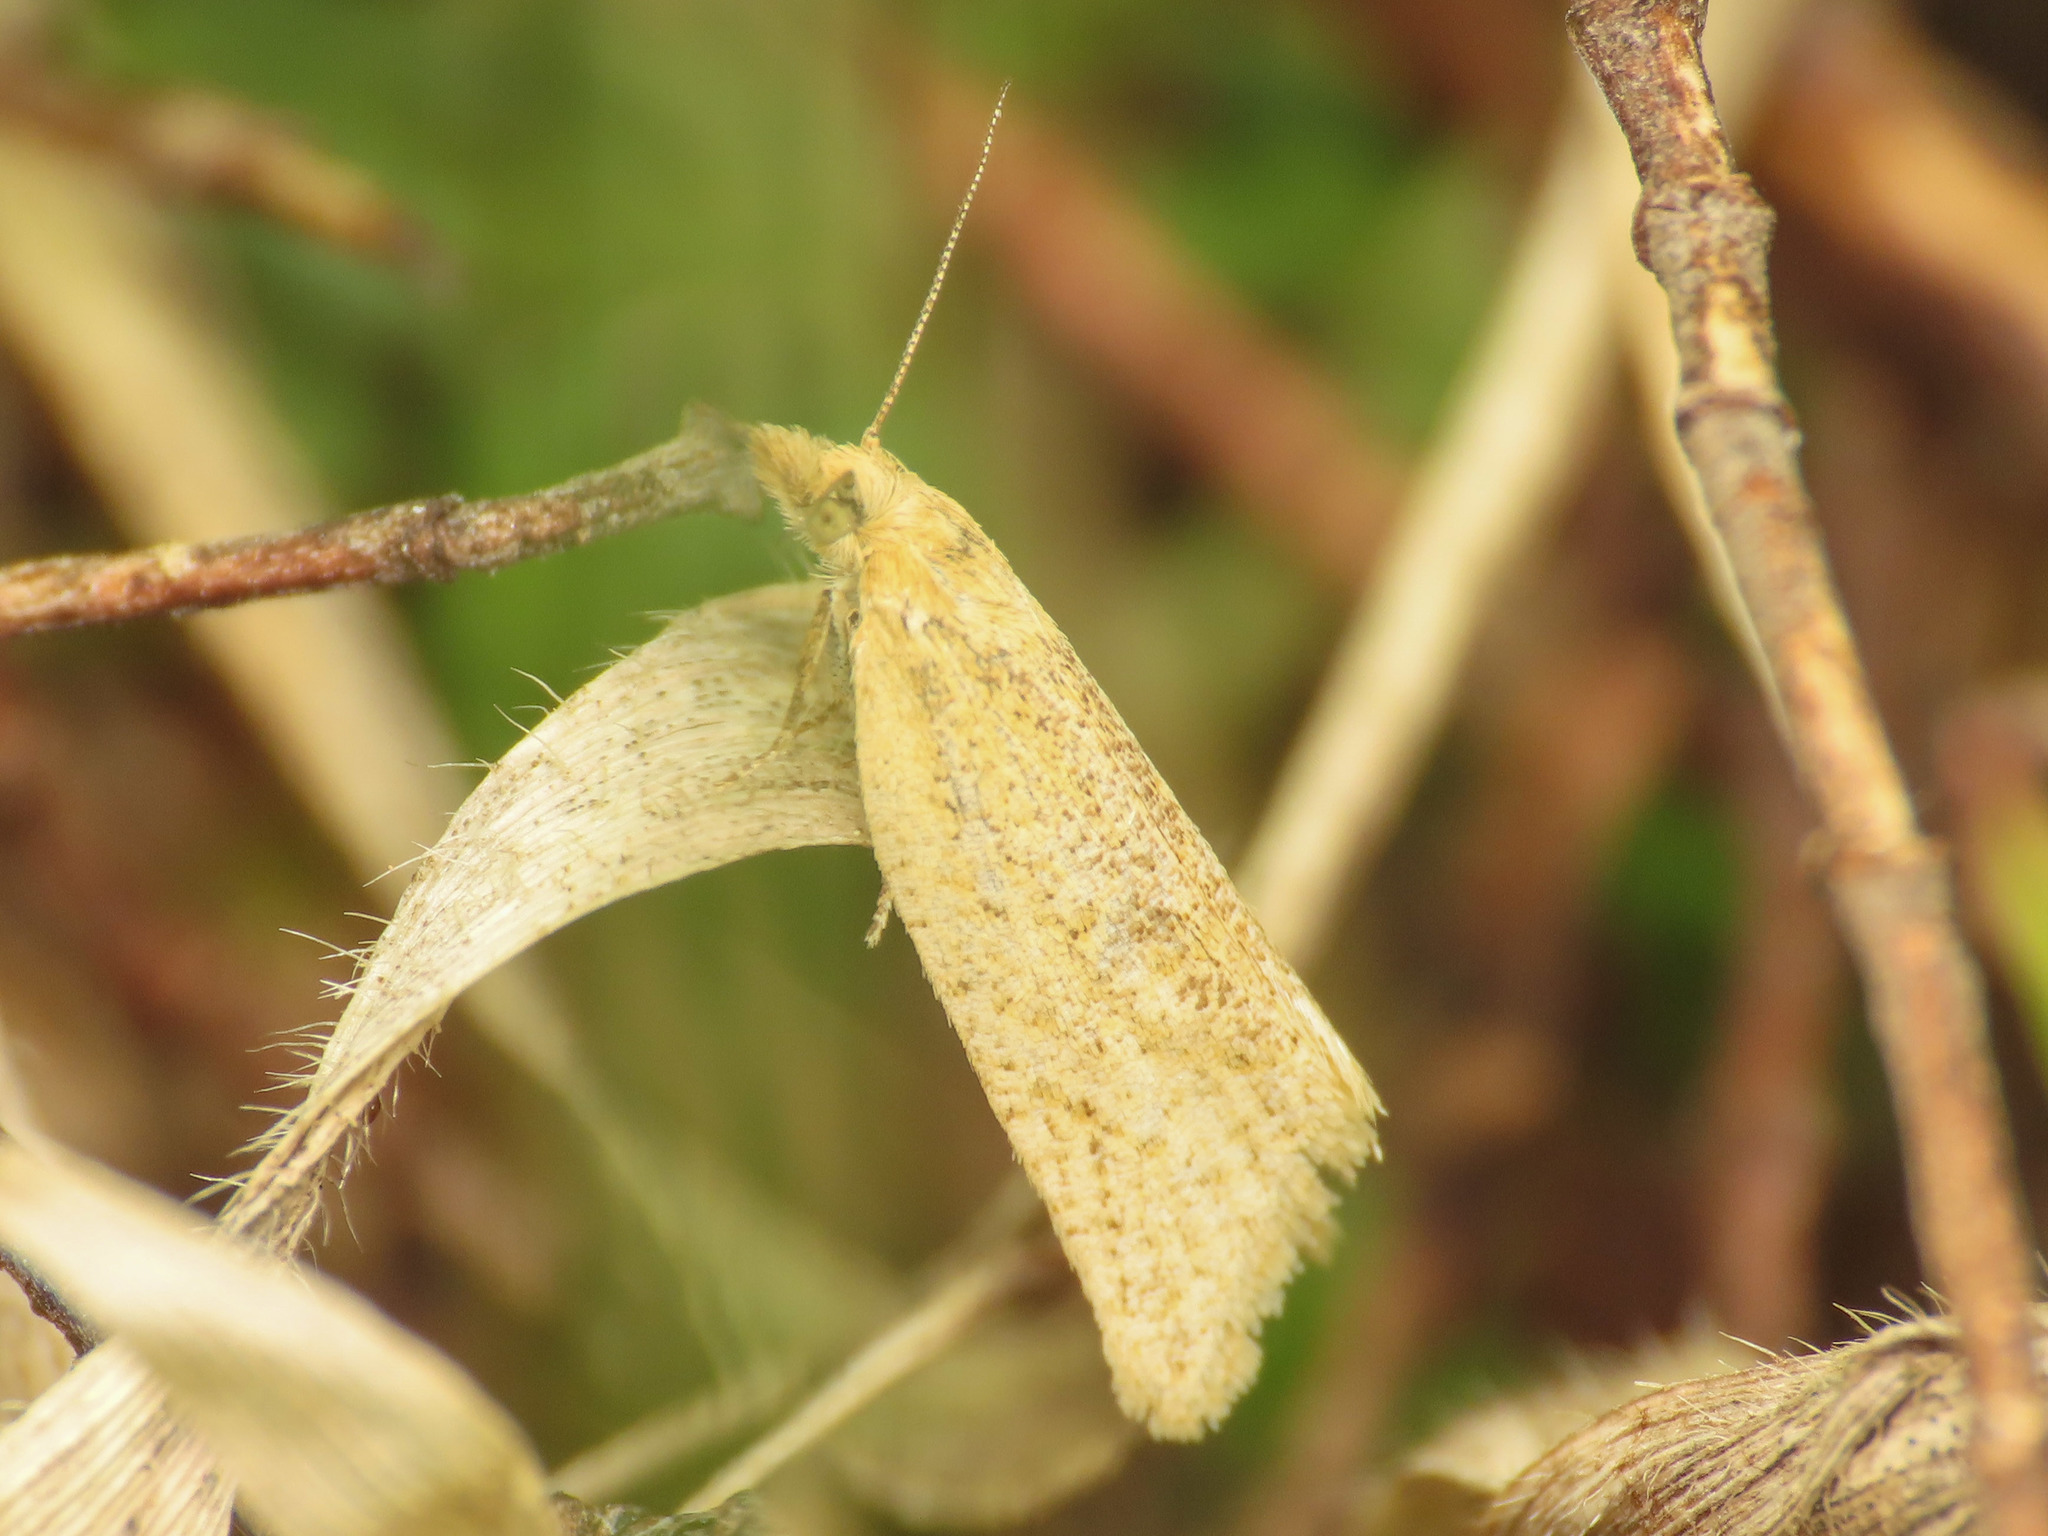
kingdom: Animalia
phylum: Arthropoda
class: Insecta
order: Lepidoptera
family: Tortricidae
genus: Clepsis
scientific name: Clepsis senecionana
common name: Obscure tortrix
